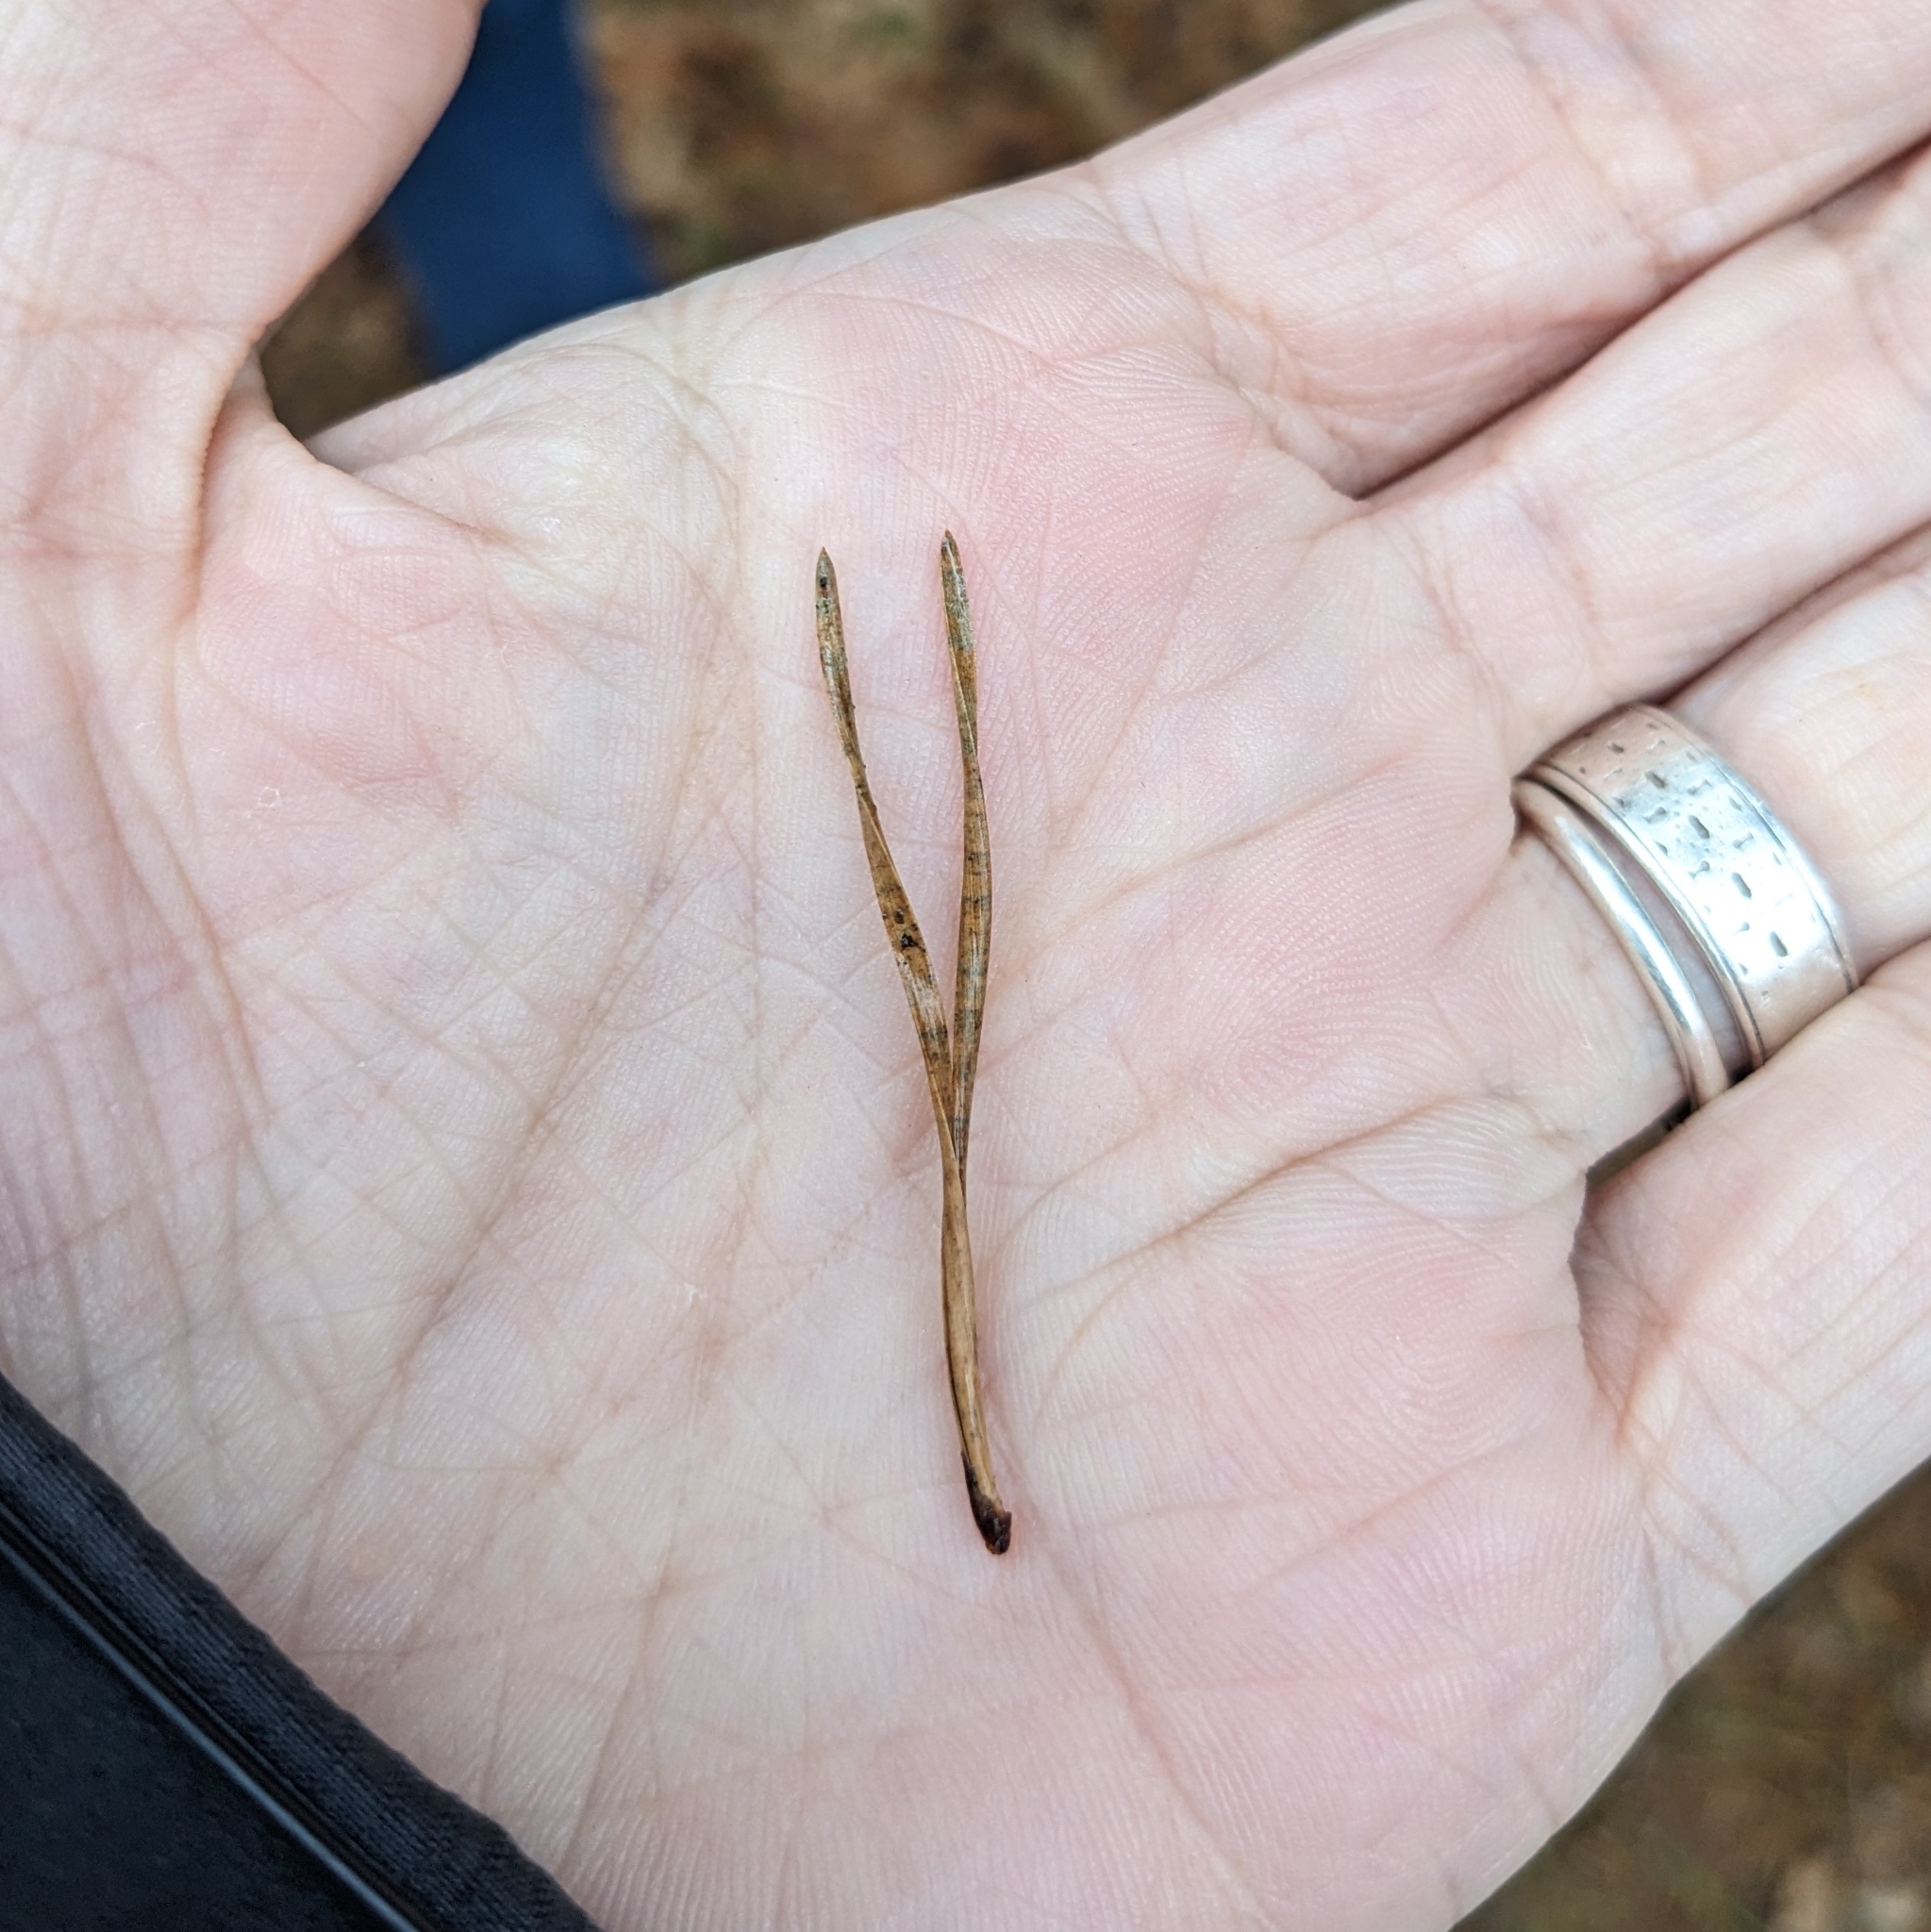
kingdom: Plantae
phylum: Tracheophyta
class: Pinopsida
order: Pinales
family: Pinaceae
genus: Pinus
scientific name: Pinus virginiana
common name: Scrub pine
